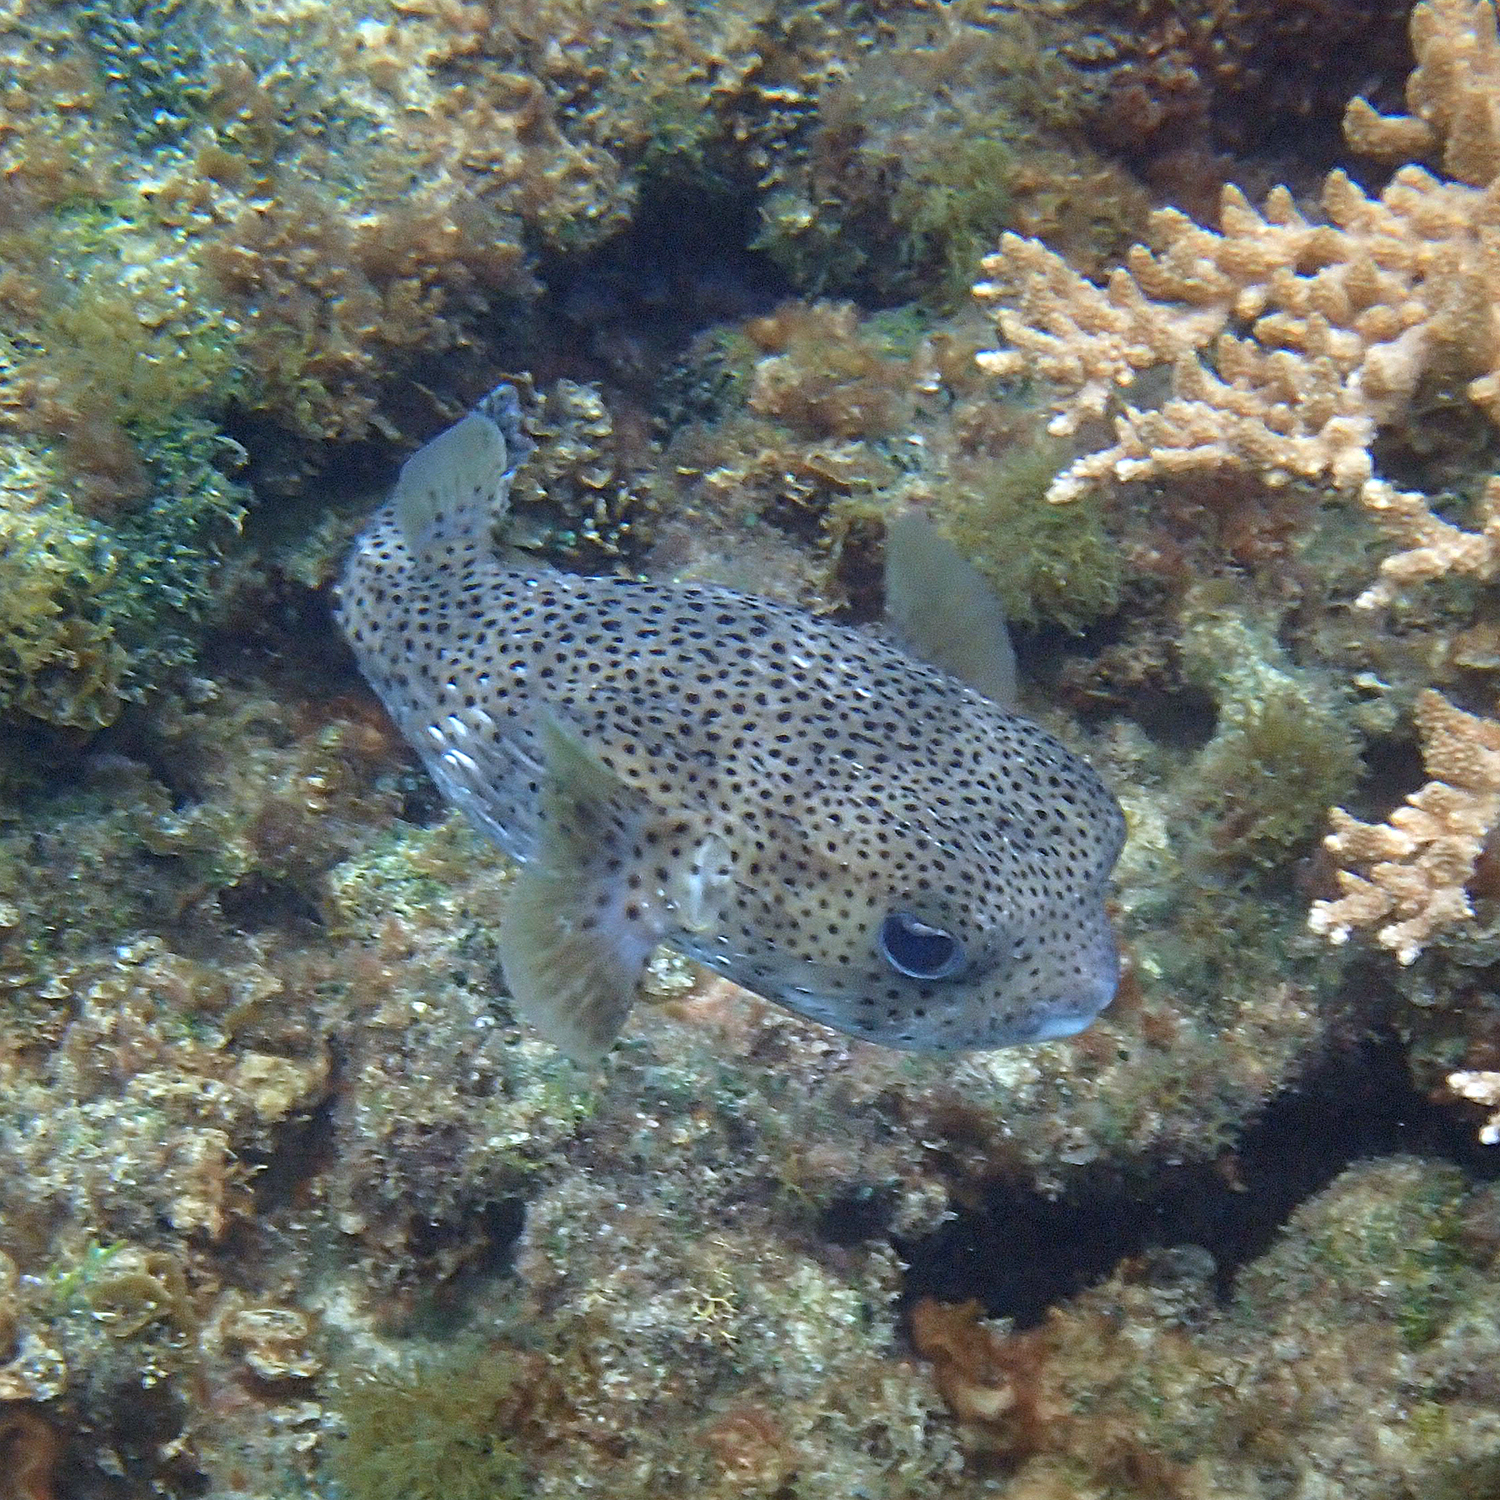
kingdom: Animalia
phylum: Chordata
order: Tetraodontiformes
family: Diodontidae
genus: Diodon
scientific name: Diodon hystrix
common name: Giant porcupinefish
